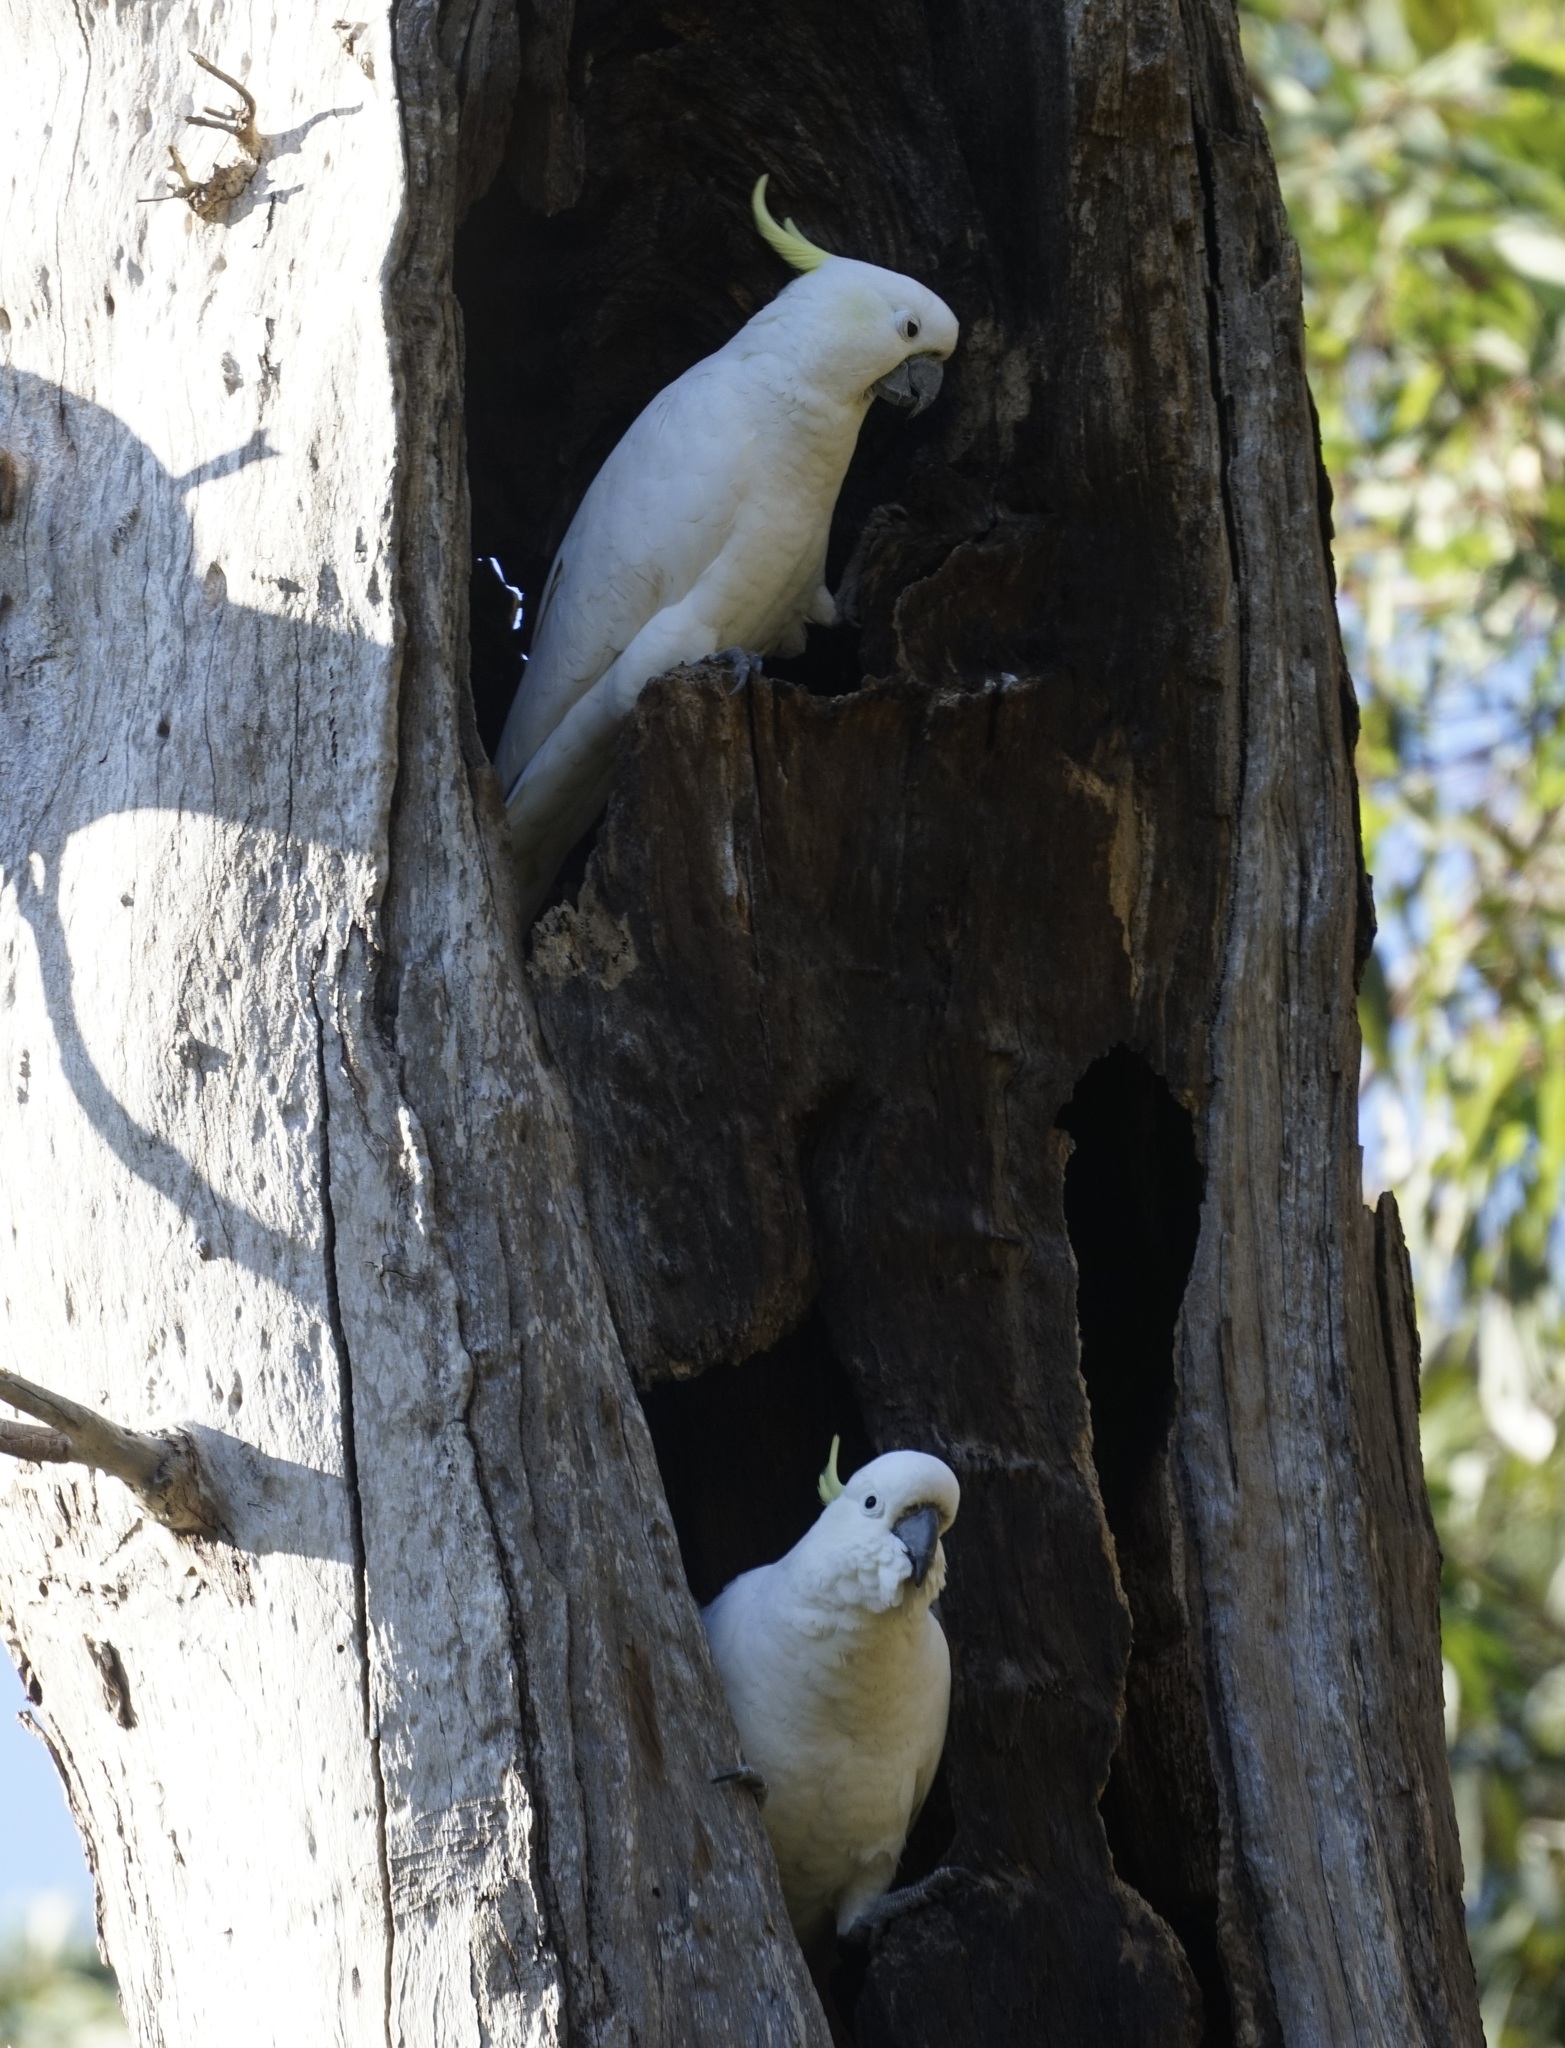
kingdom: Animalia
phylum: Chordata
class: Aves
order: Psittaciformes
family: Psittacidae
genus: Cacatua
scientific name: Cacatua galerita
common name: Sulphur-crested cockatoo
